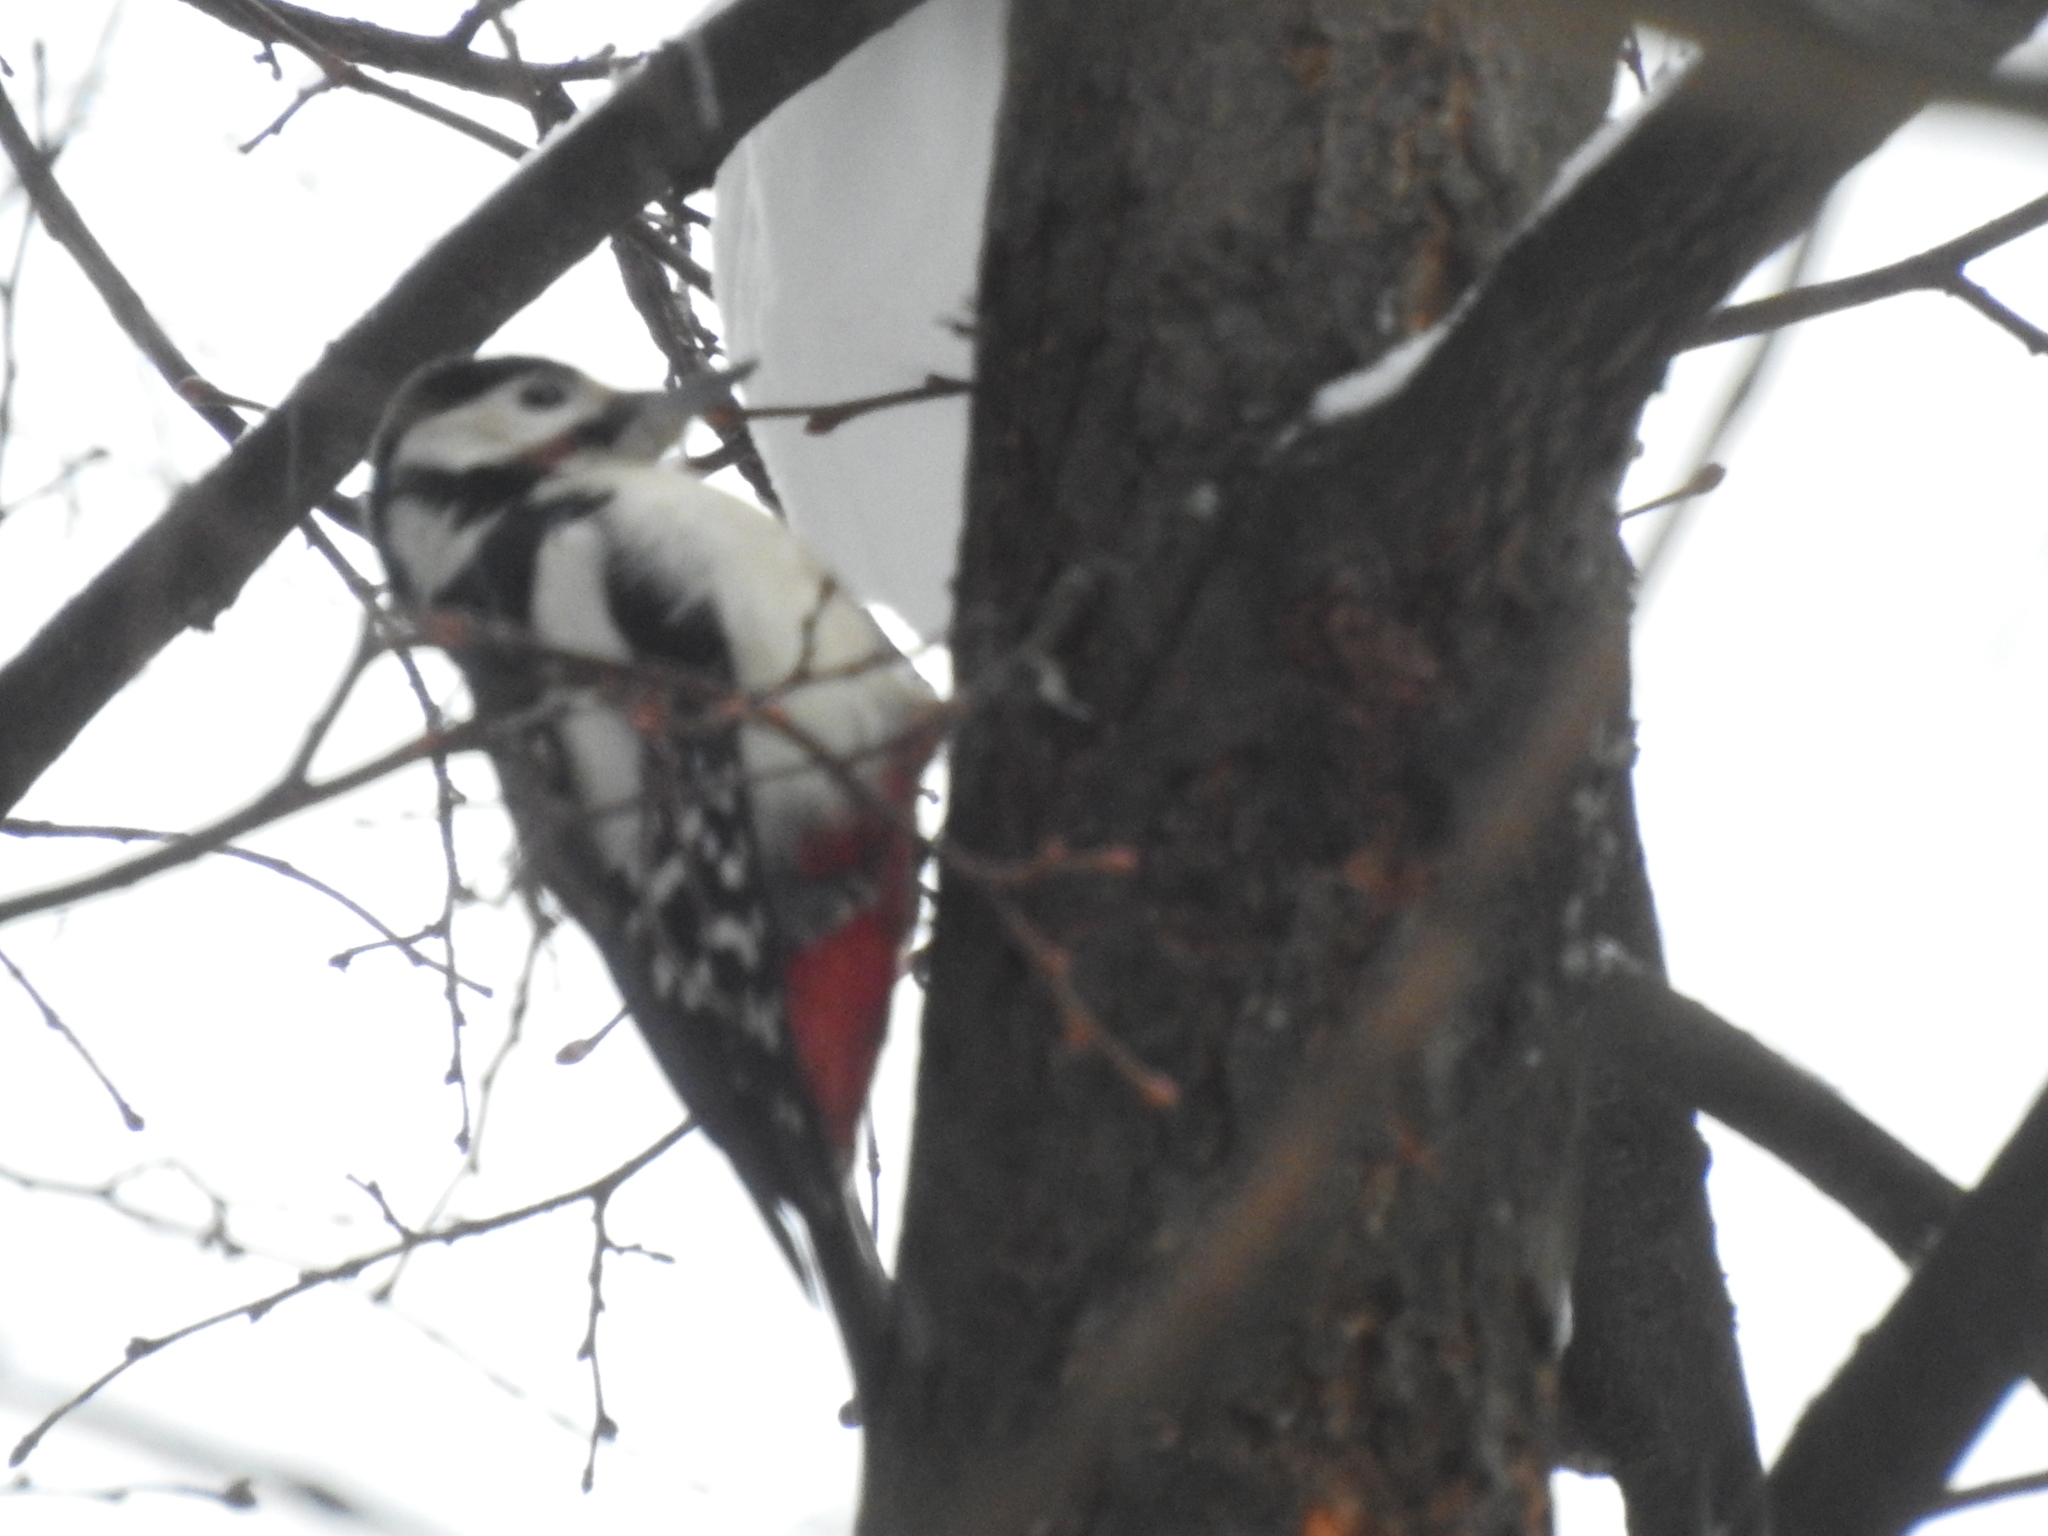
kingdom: Animalia
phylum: Chordata
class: Aves
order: Piciformes
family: Picidae
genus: Dendrocopos
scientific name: Dendrocopos major
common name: Great spotted woodpecker
